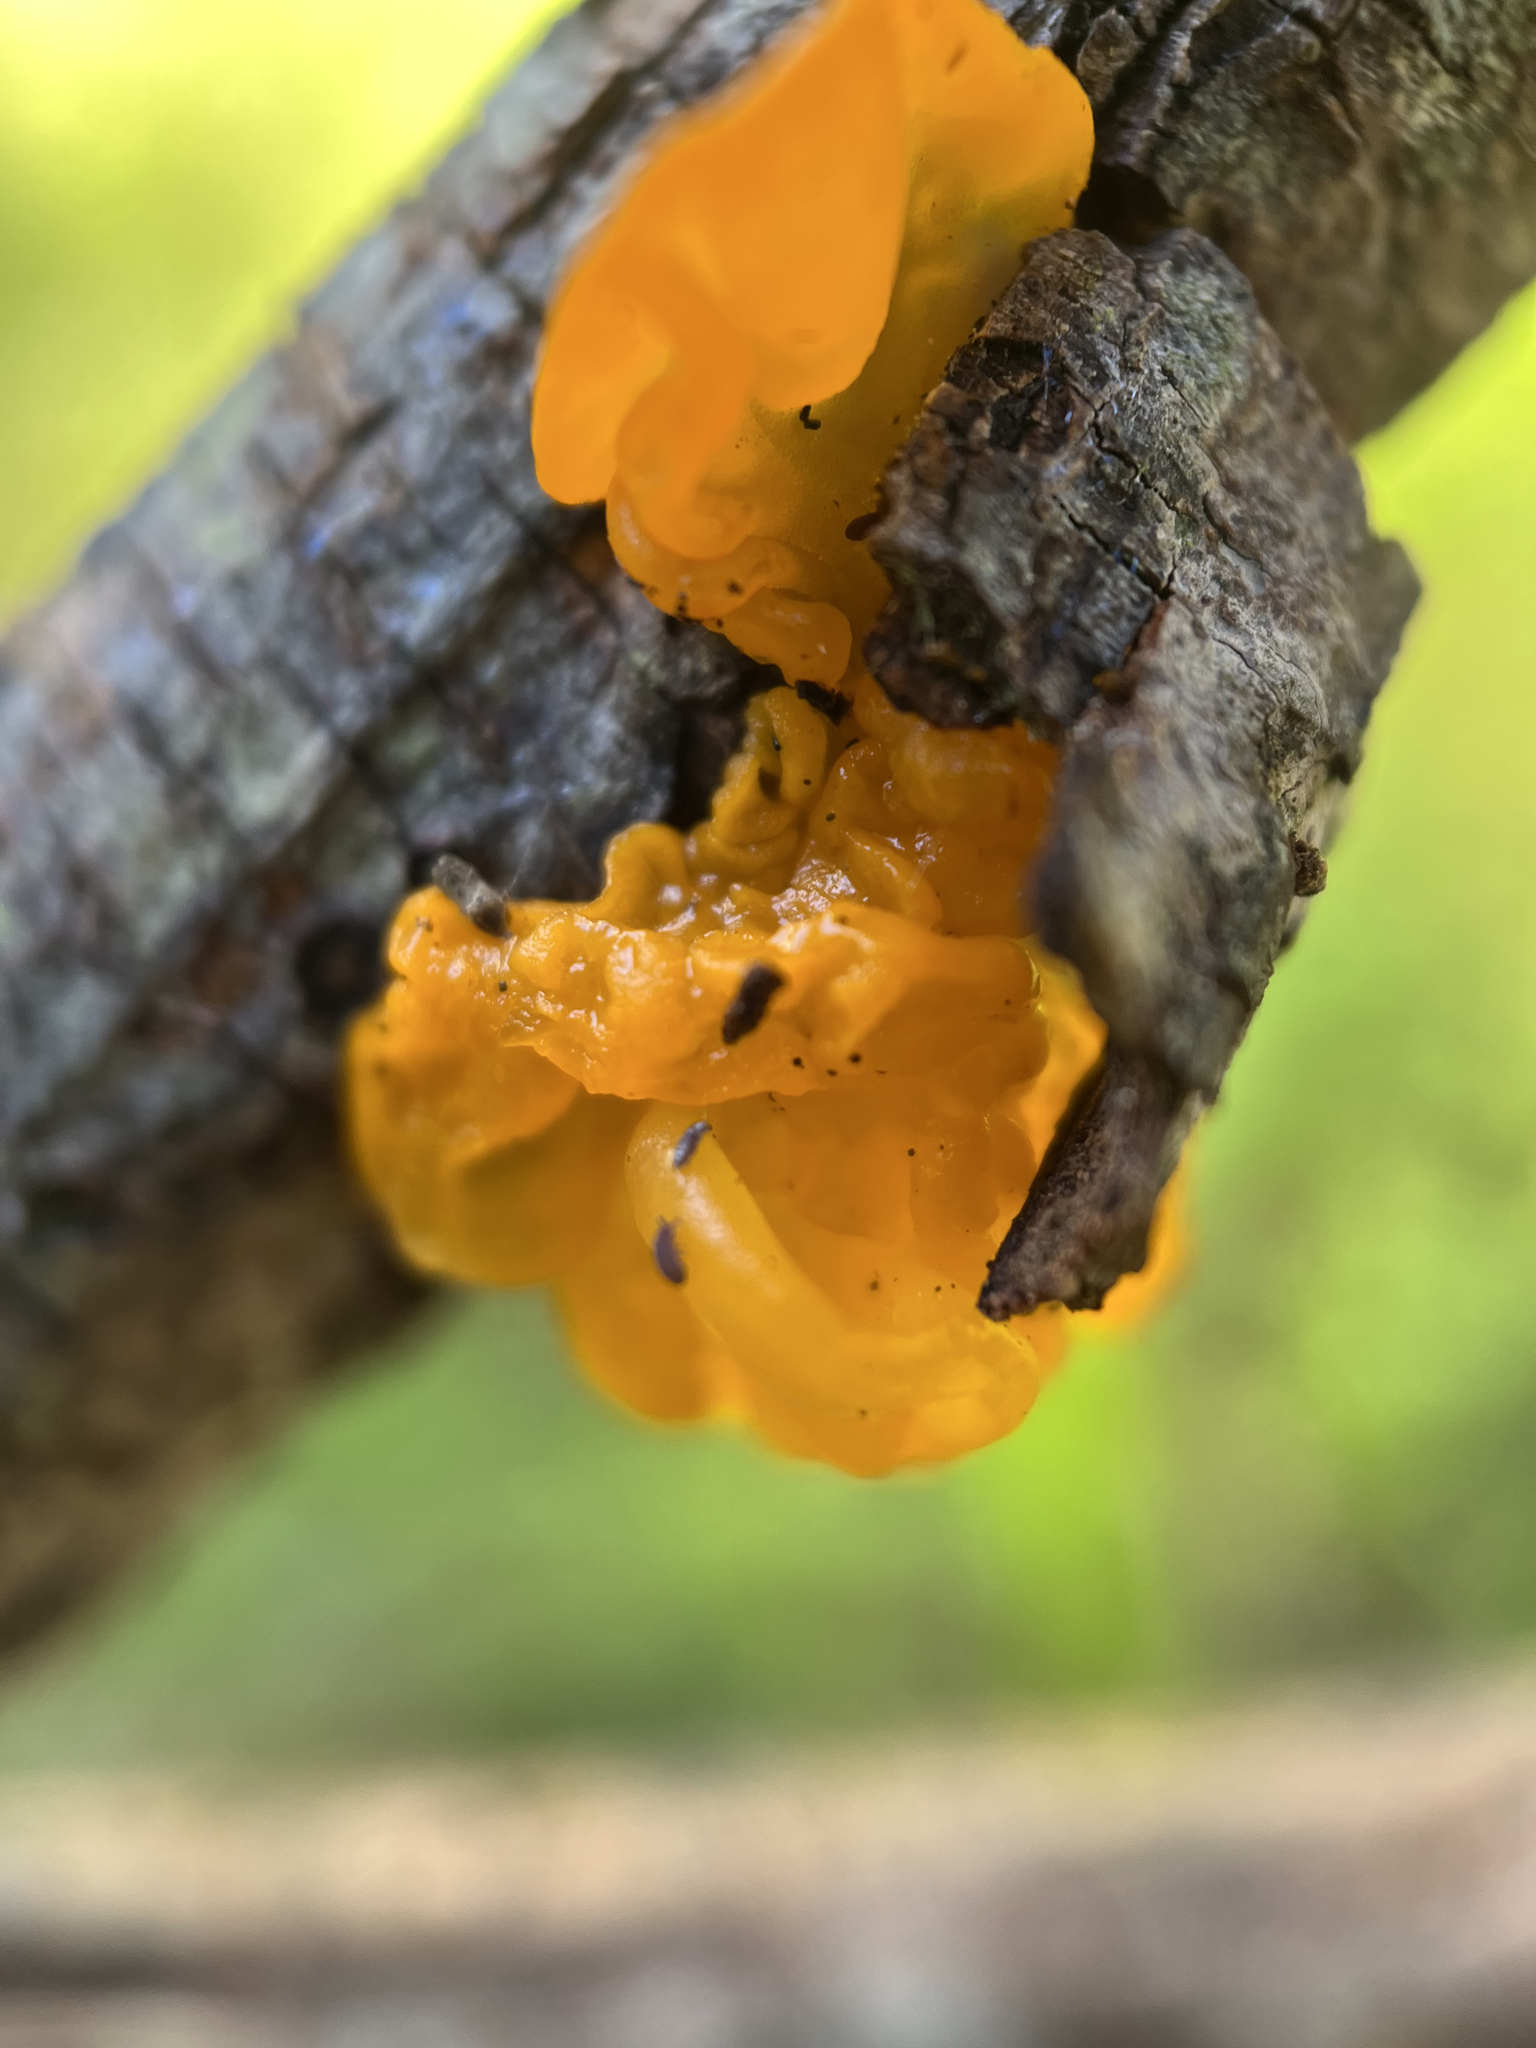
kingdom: Fungi
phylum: Basidiomycota
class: Tremellomycetes
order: Tremellales
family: Tremellaceae
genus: Tremella
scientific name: Tremella mesenterica
